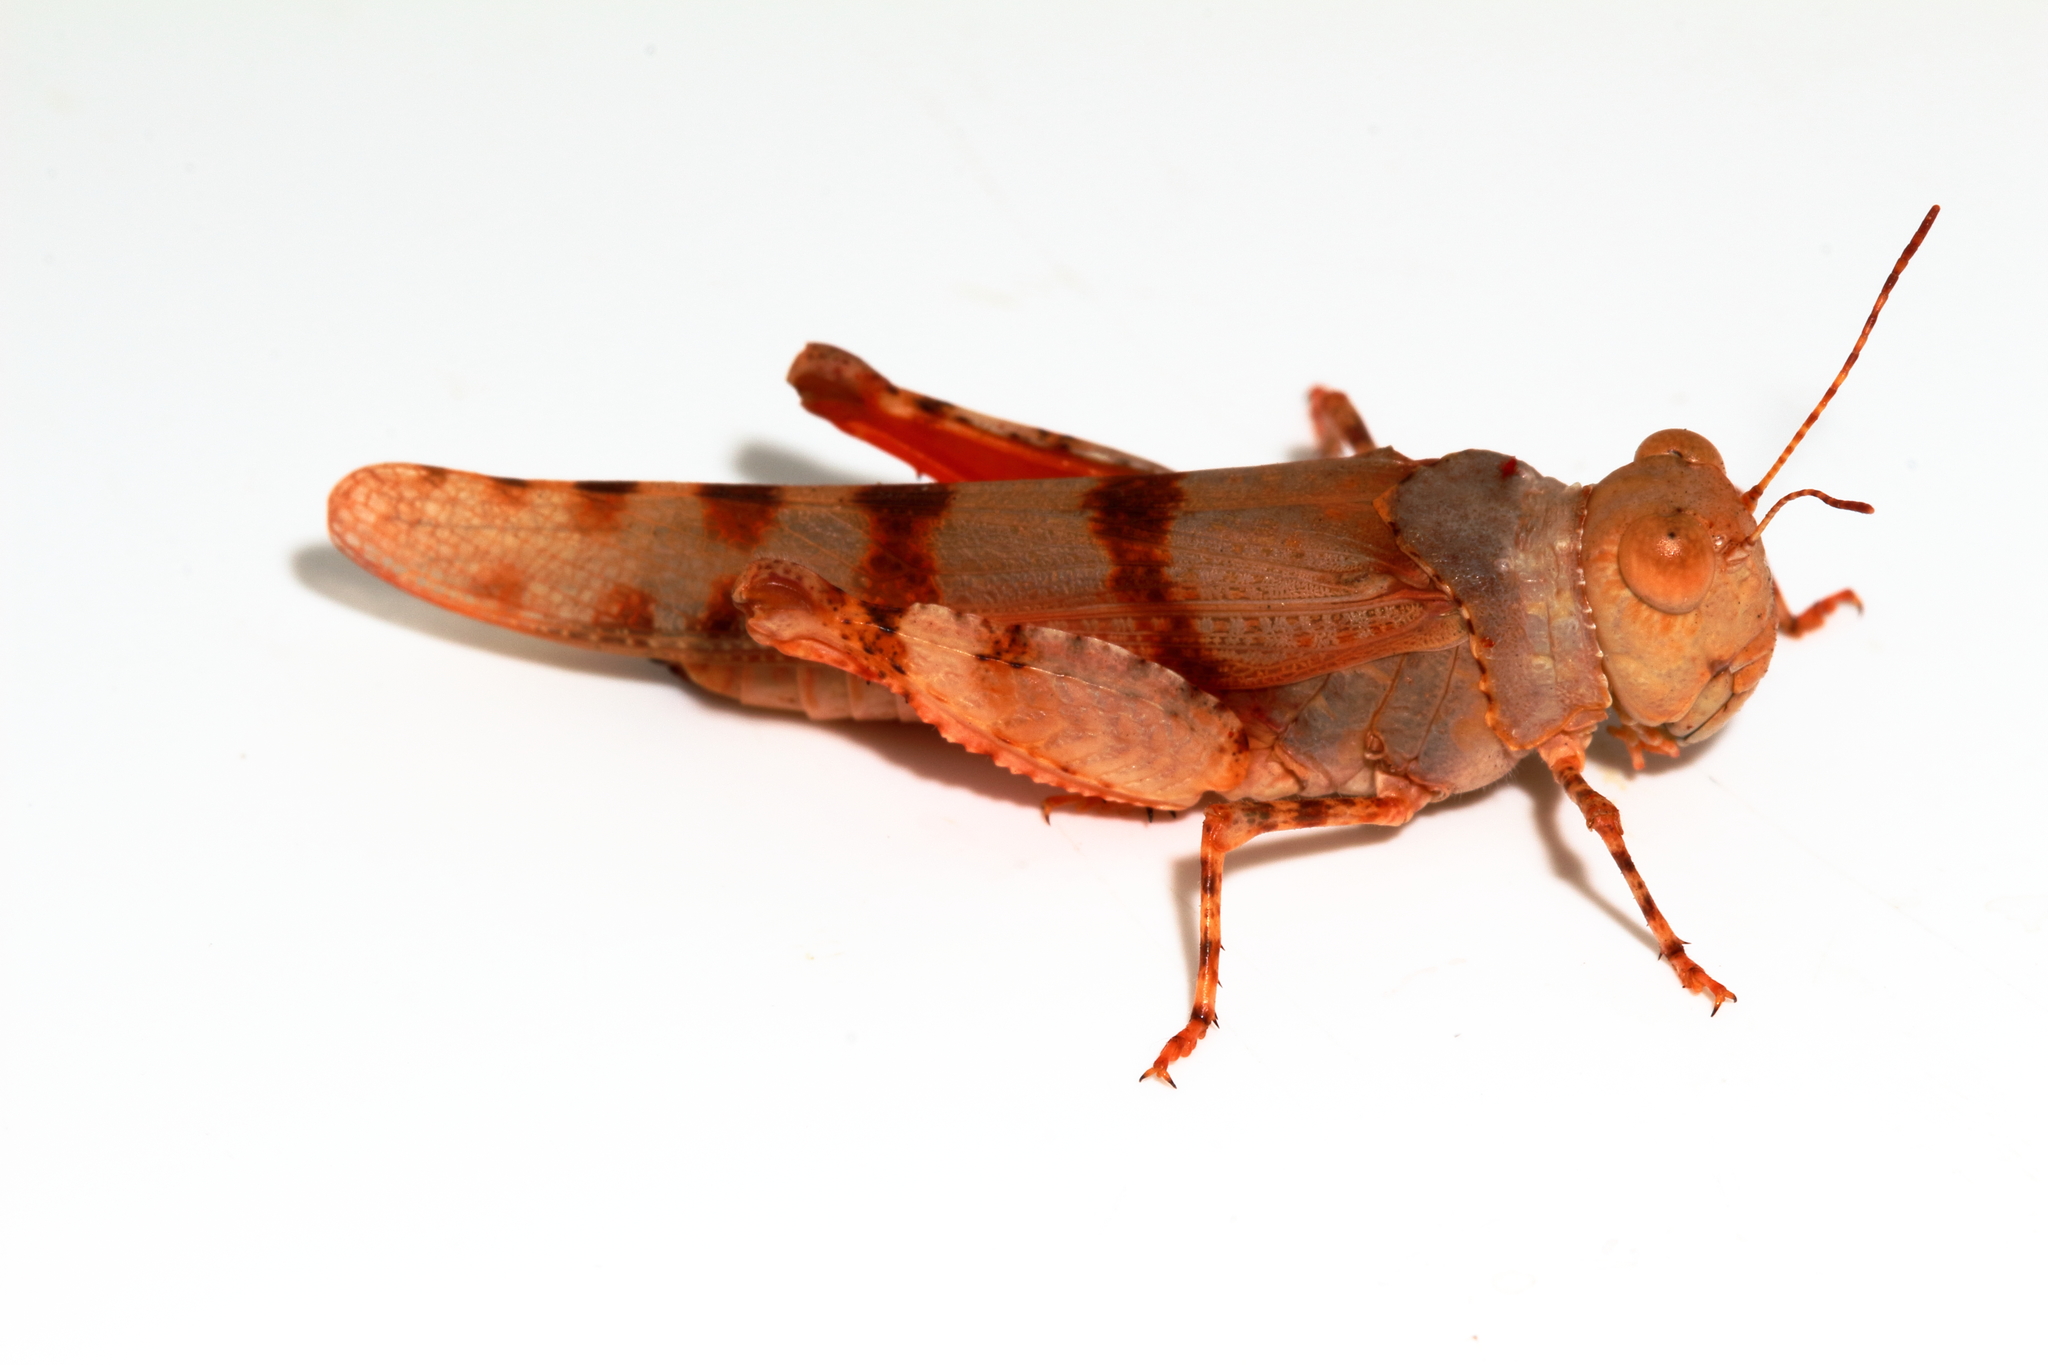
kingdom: Animalia
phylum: Arthropoda
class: Insecta
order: Orthoptera
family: Acrididae
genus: Qualetta
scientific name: Qualetta maculata
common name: Spotted bandwing
